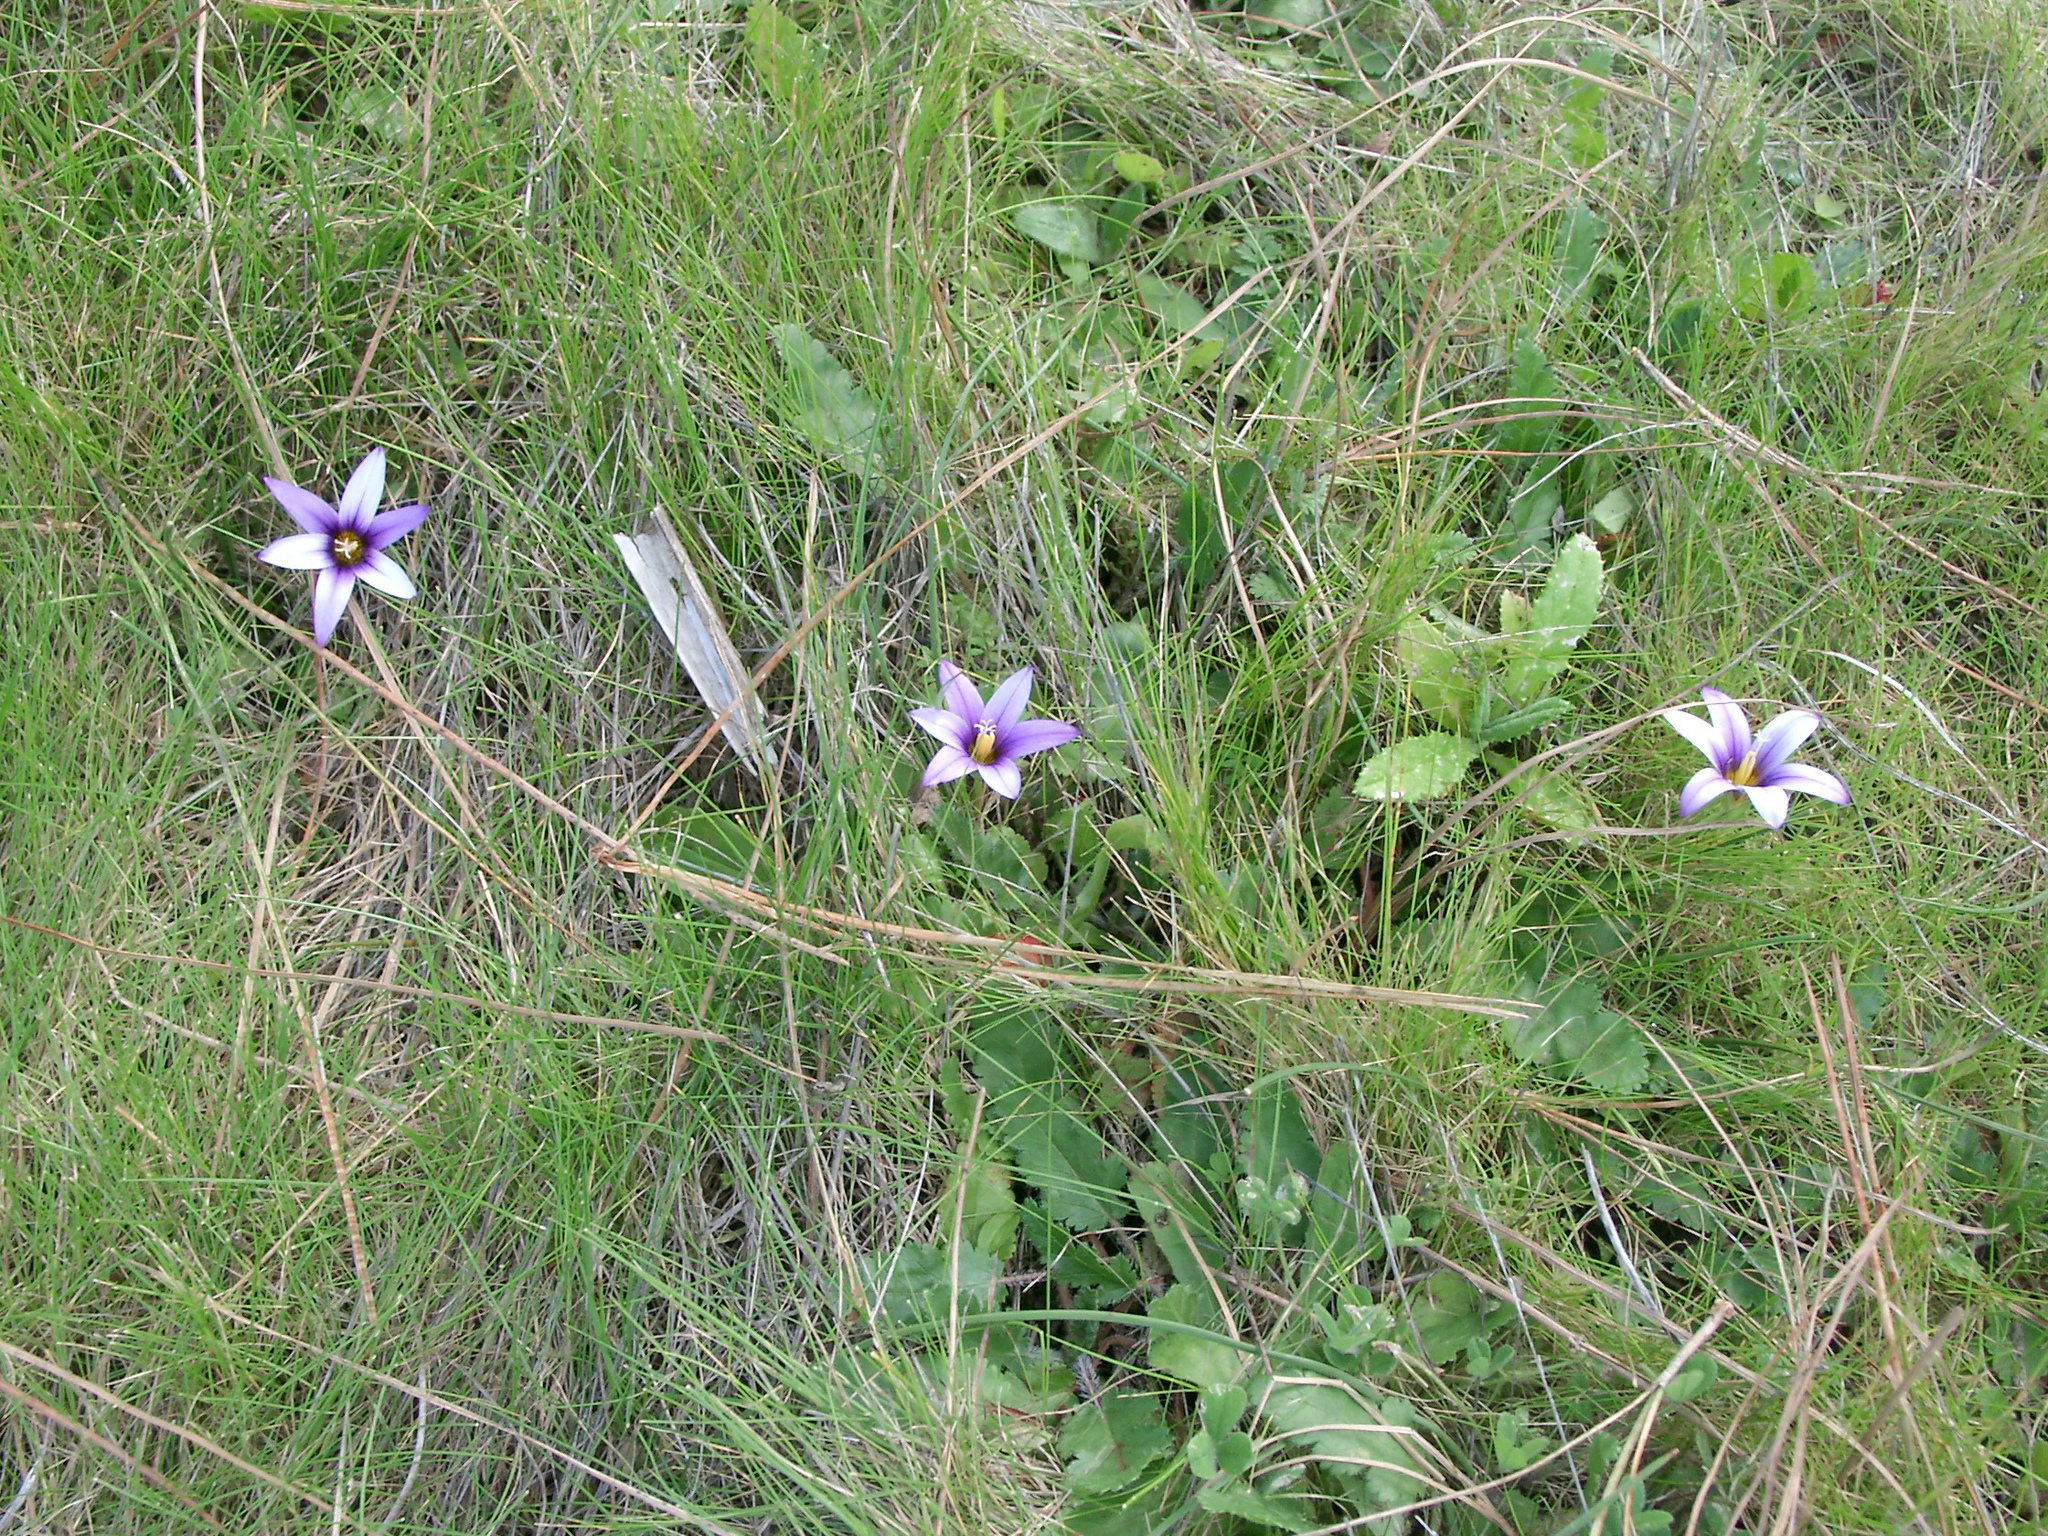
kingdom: Plantae
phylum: Tracheophyta
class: Liliopsida
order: Asparagales
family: Iridaceae
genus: Romulea
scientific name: Romulea columnae
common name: Sand-crocus
